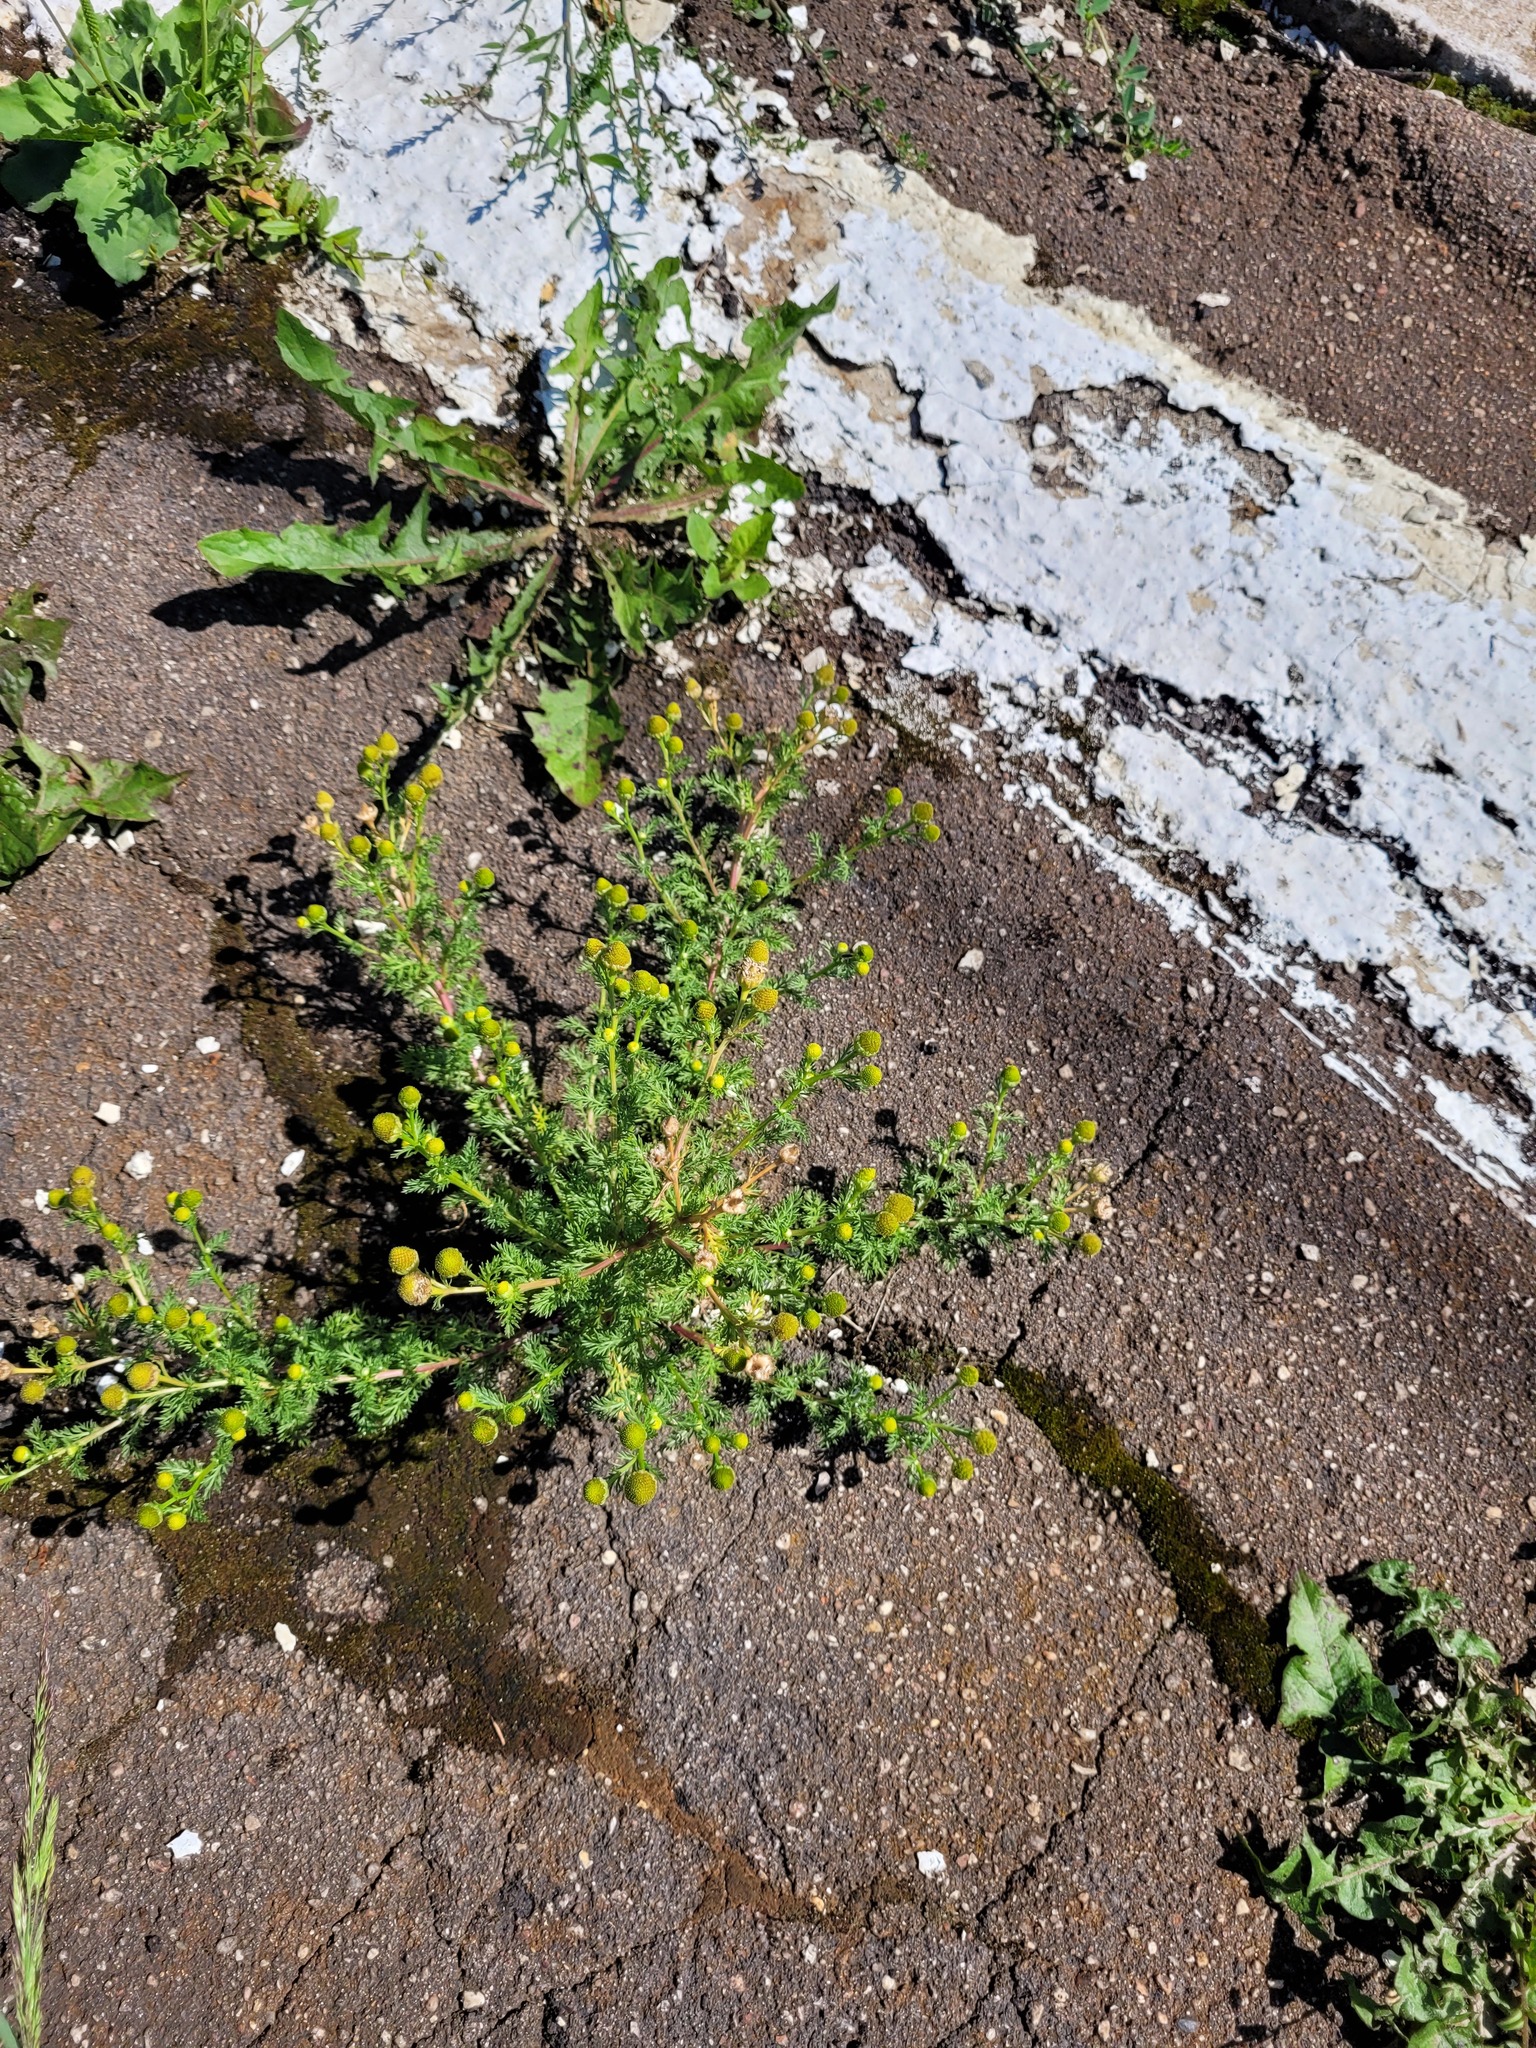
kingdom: Plantae
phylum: Tracheophyta
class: Magnoliopsida
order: Asterales
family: Asteraceae
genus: Matricaria
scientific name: Matricaria discoidea
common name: Disc mayweed
